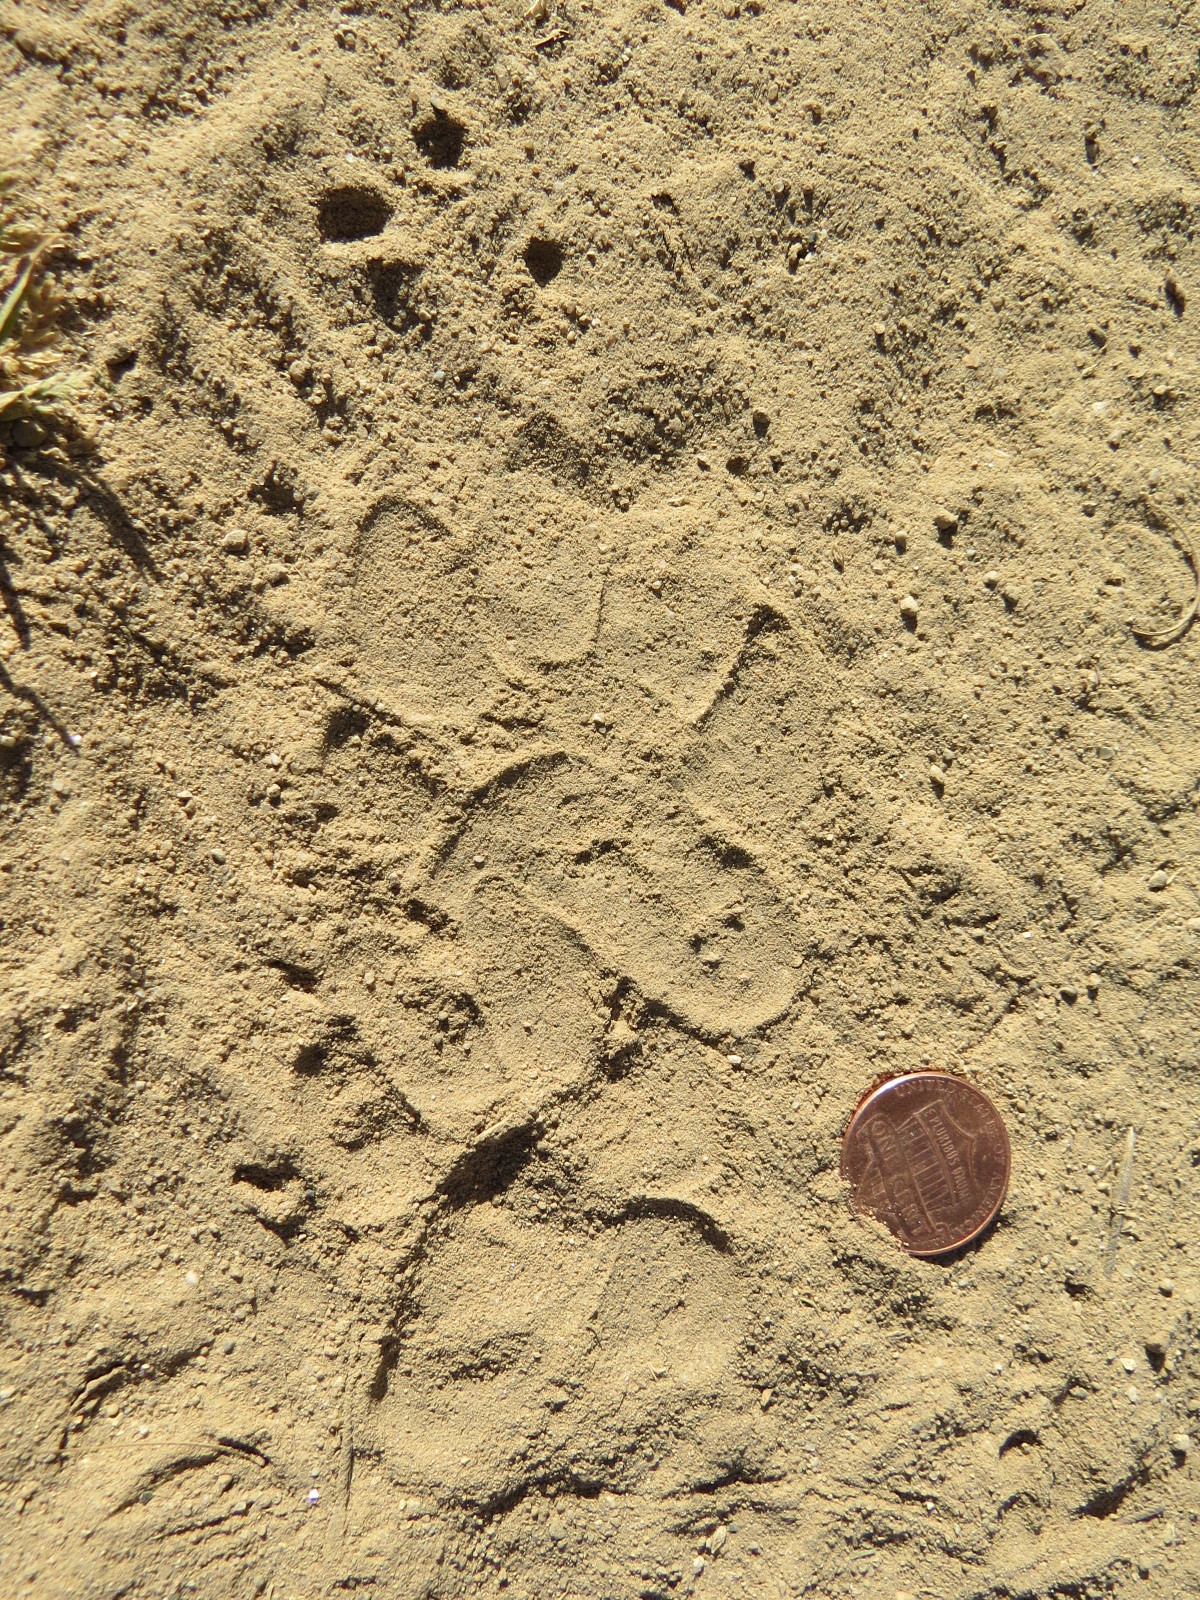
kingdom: Animalia
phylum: Chordata
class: Mammalia
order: Carnivora
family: Mustelidae
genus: Taxidea
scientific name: Taxidea taxus
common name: American badger
